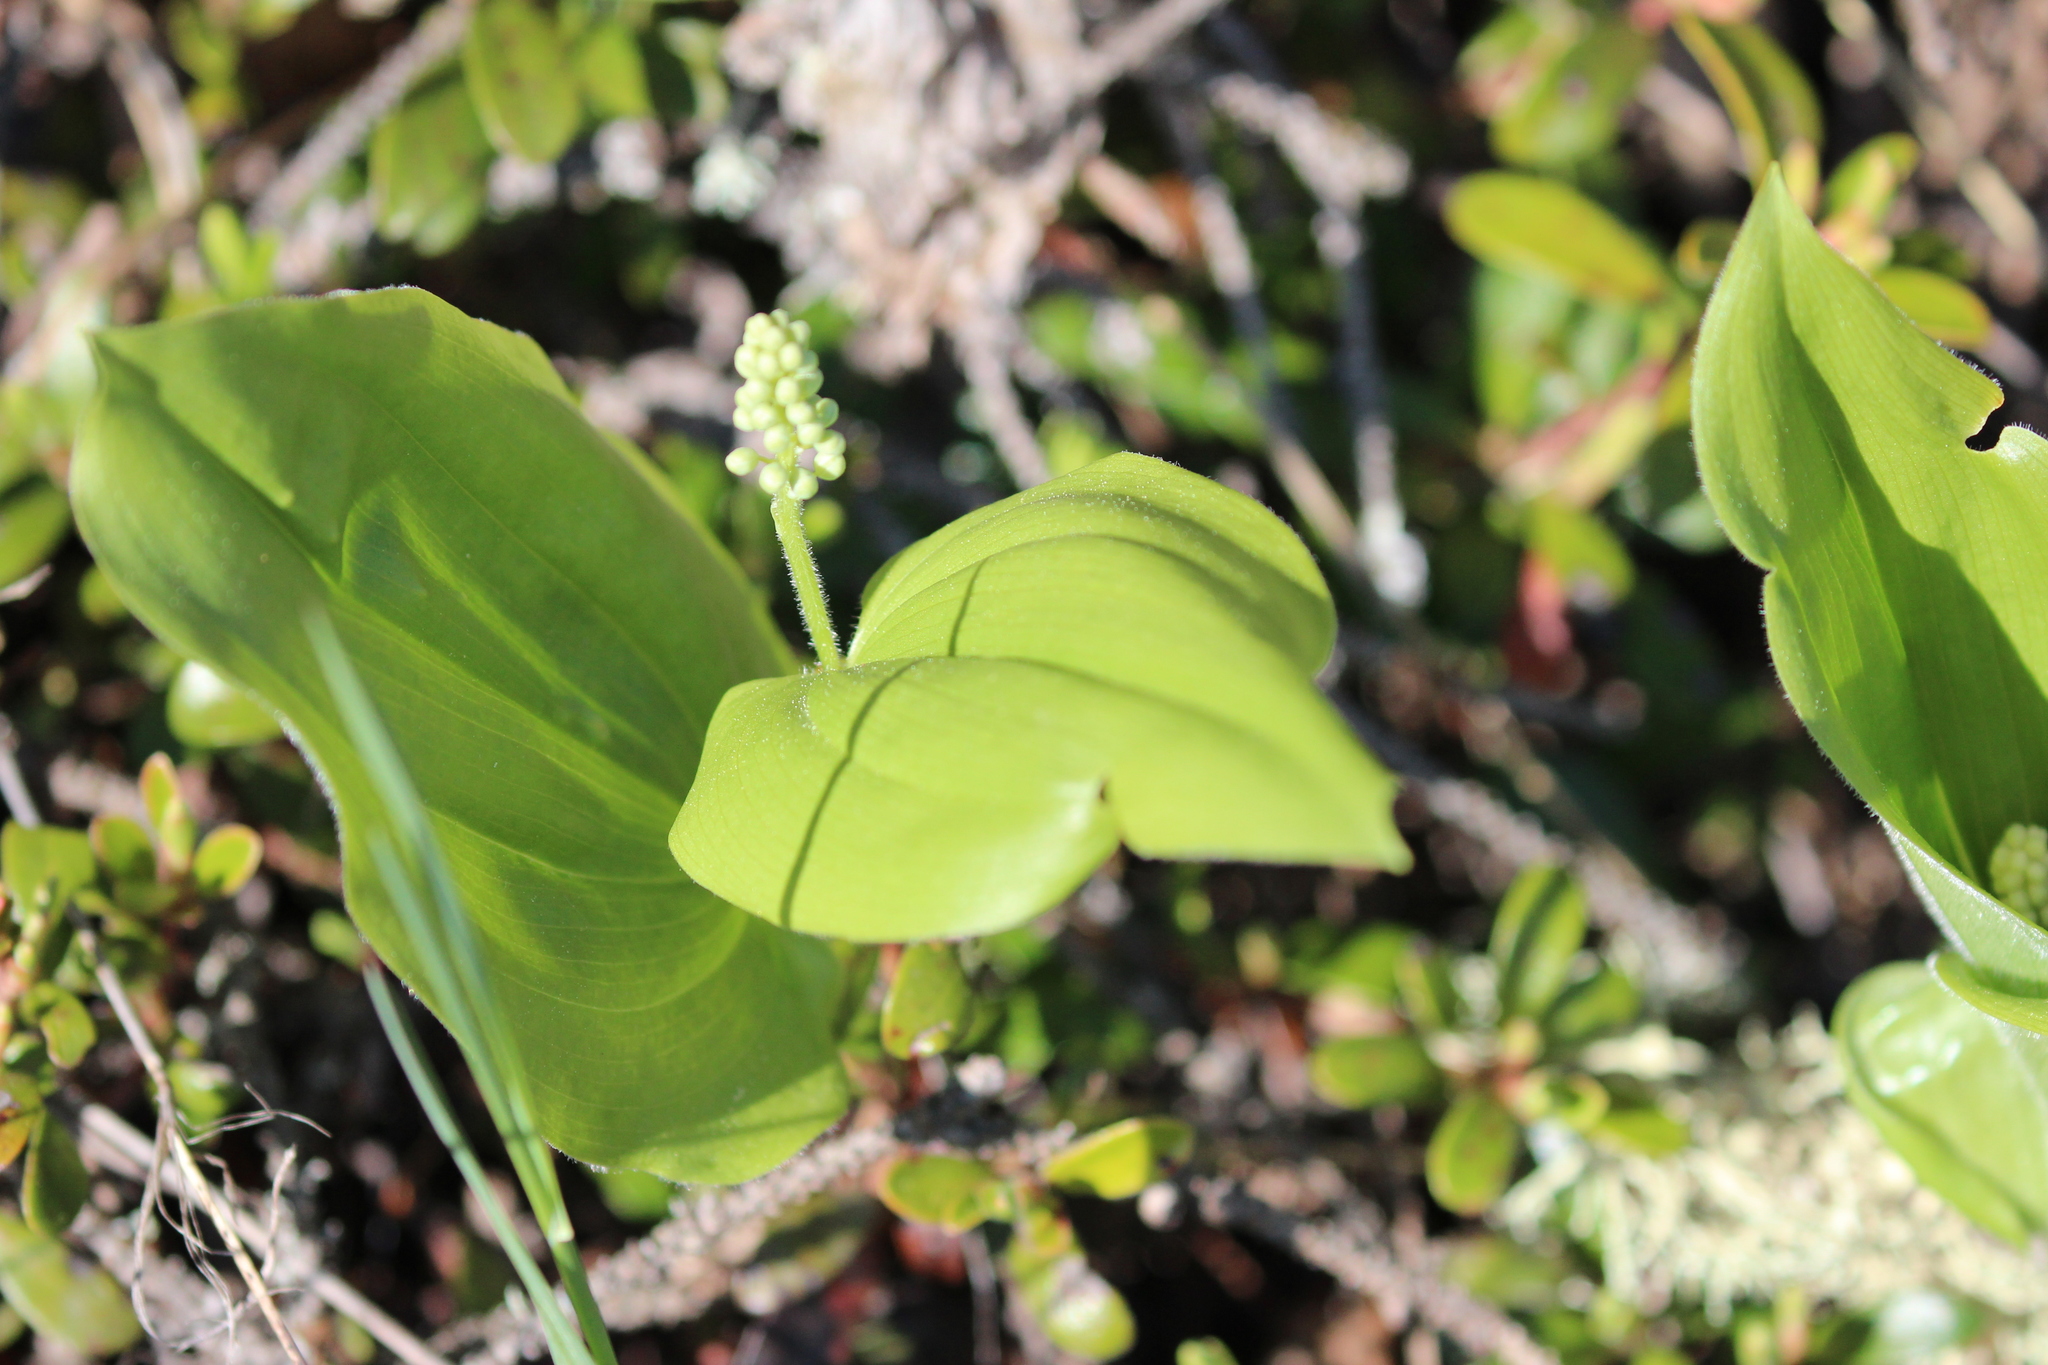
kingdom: Plantae
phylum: Tracheophyta
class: Liliopsida
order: Asparagales
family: Asparagaceae
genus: Maianthemum
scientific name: Maianthemum canadense
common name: False lily-of-the-valley
